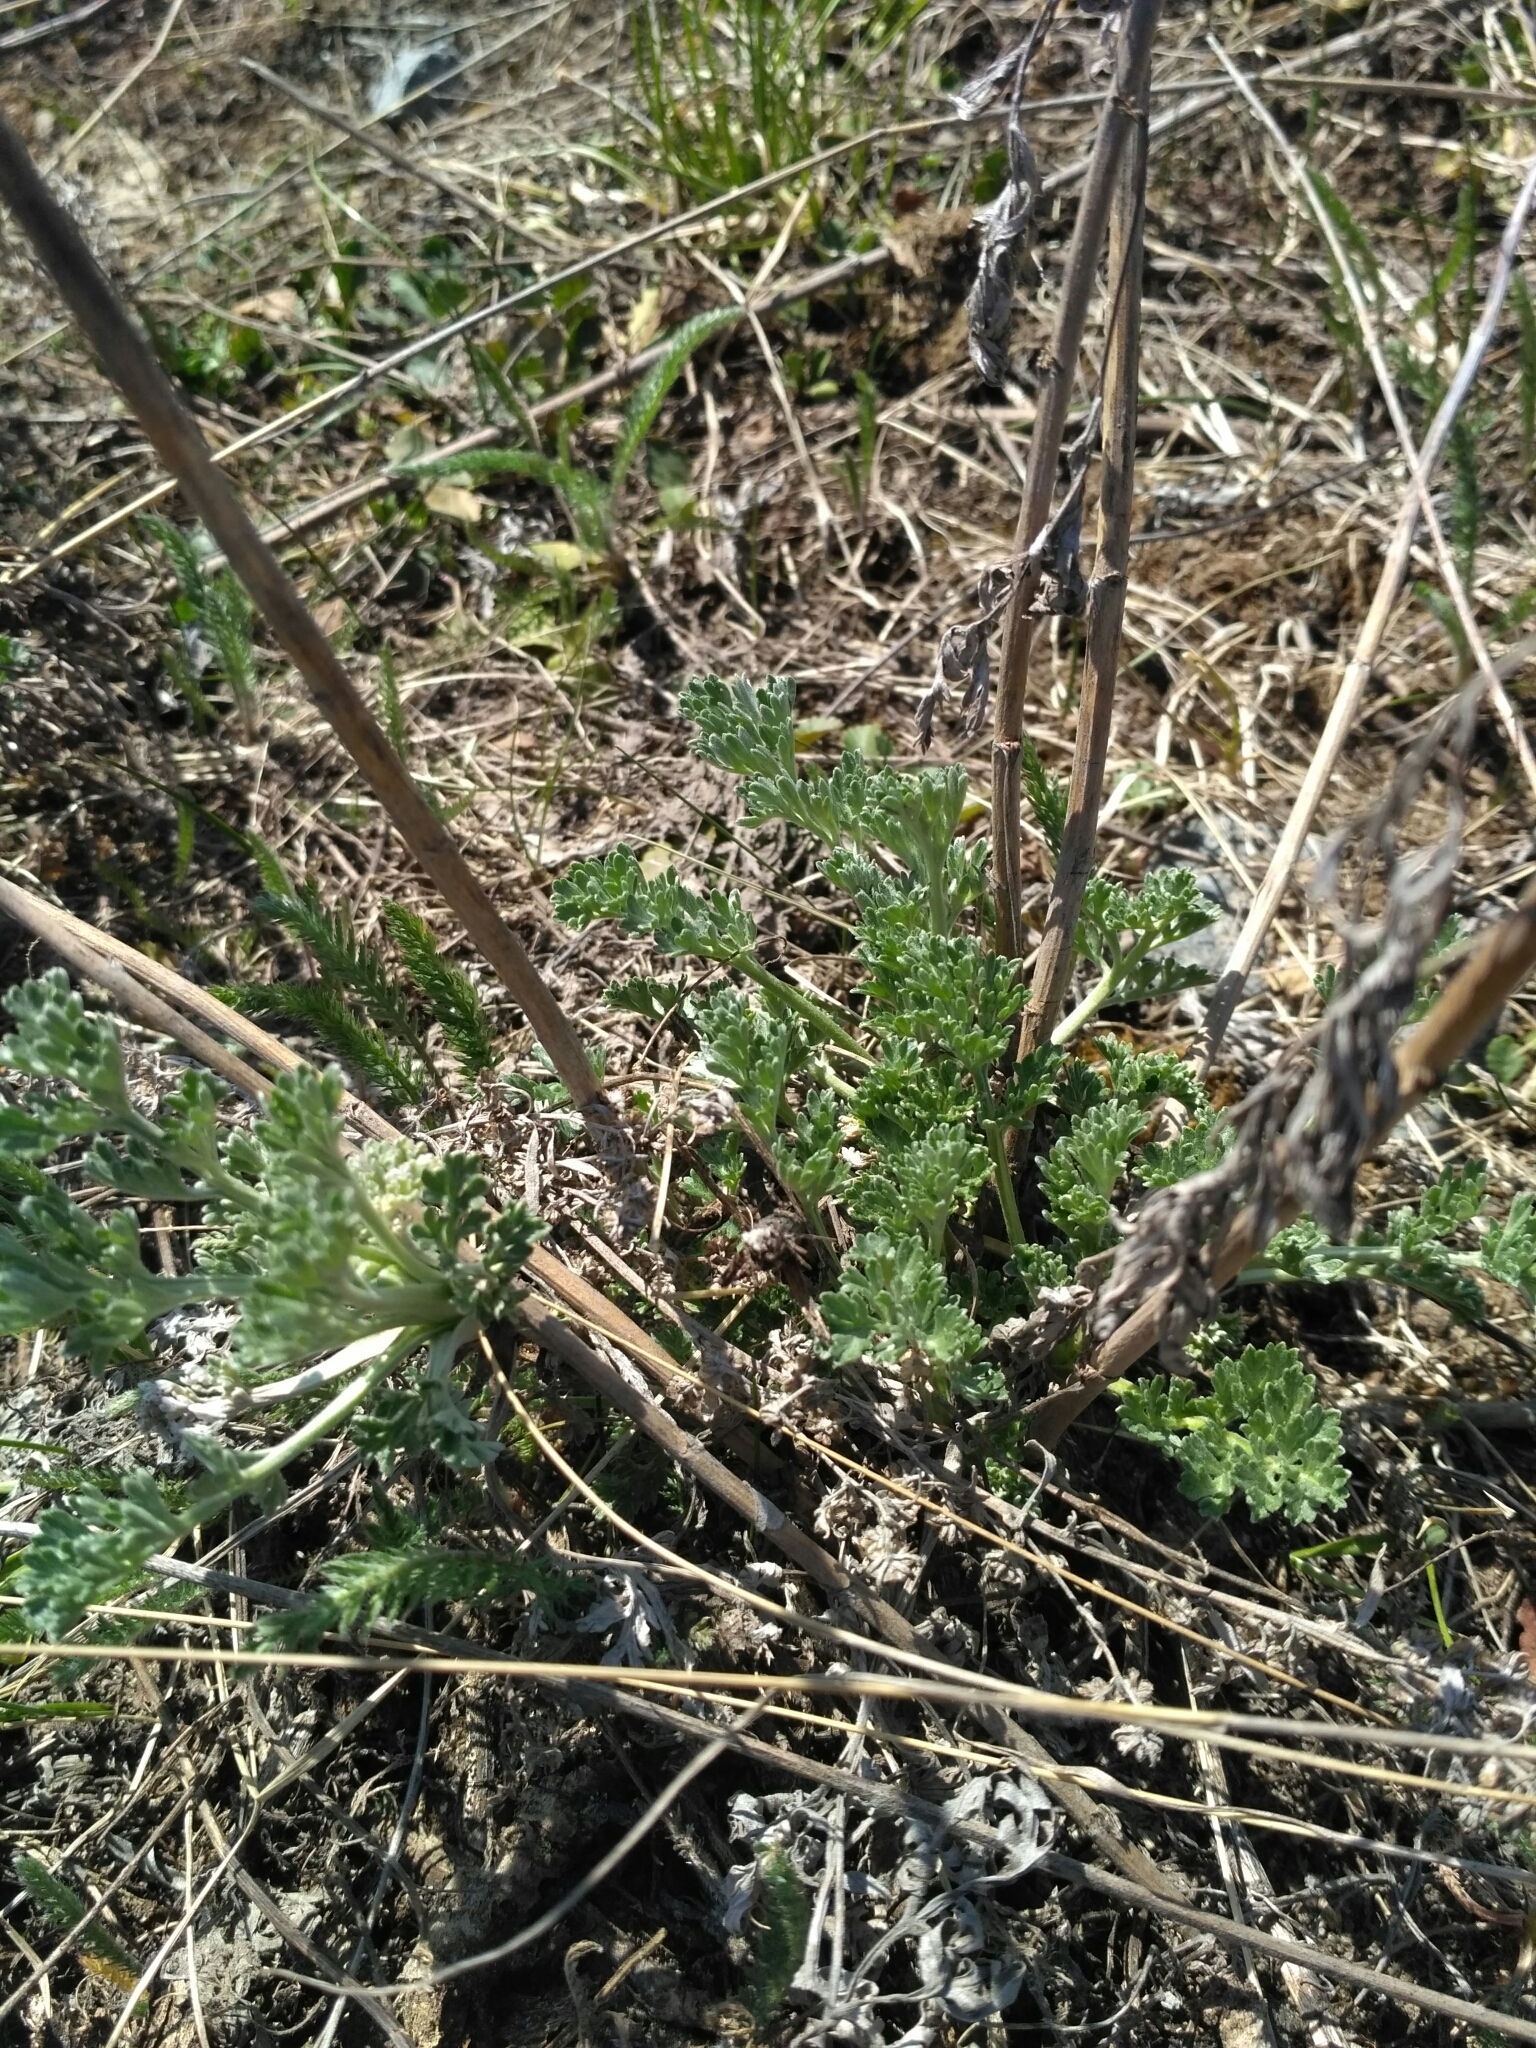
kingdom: Plantae
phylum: Tracheophyta
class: Magnoliopsida
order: Asterales
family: Asteraceae
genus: Artemisia
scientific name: Artemisia absinthium
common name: Wormwood
